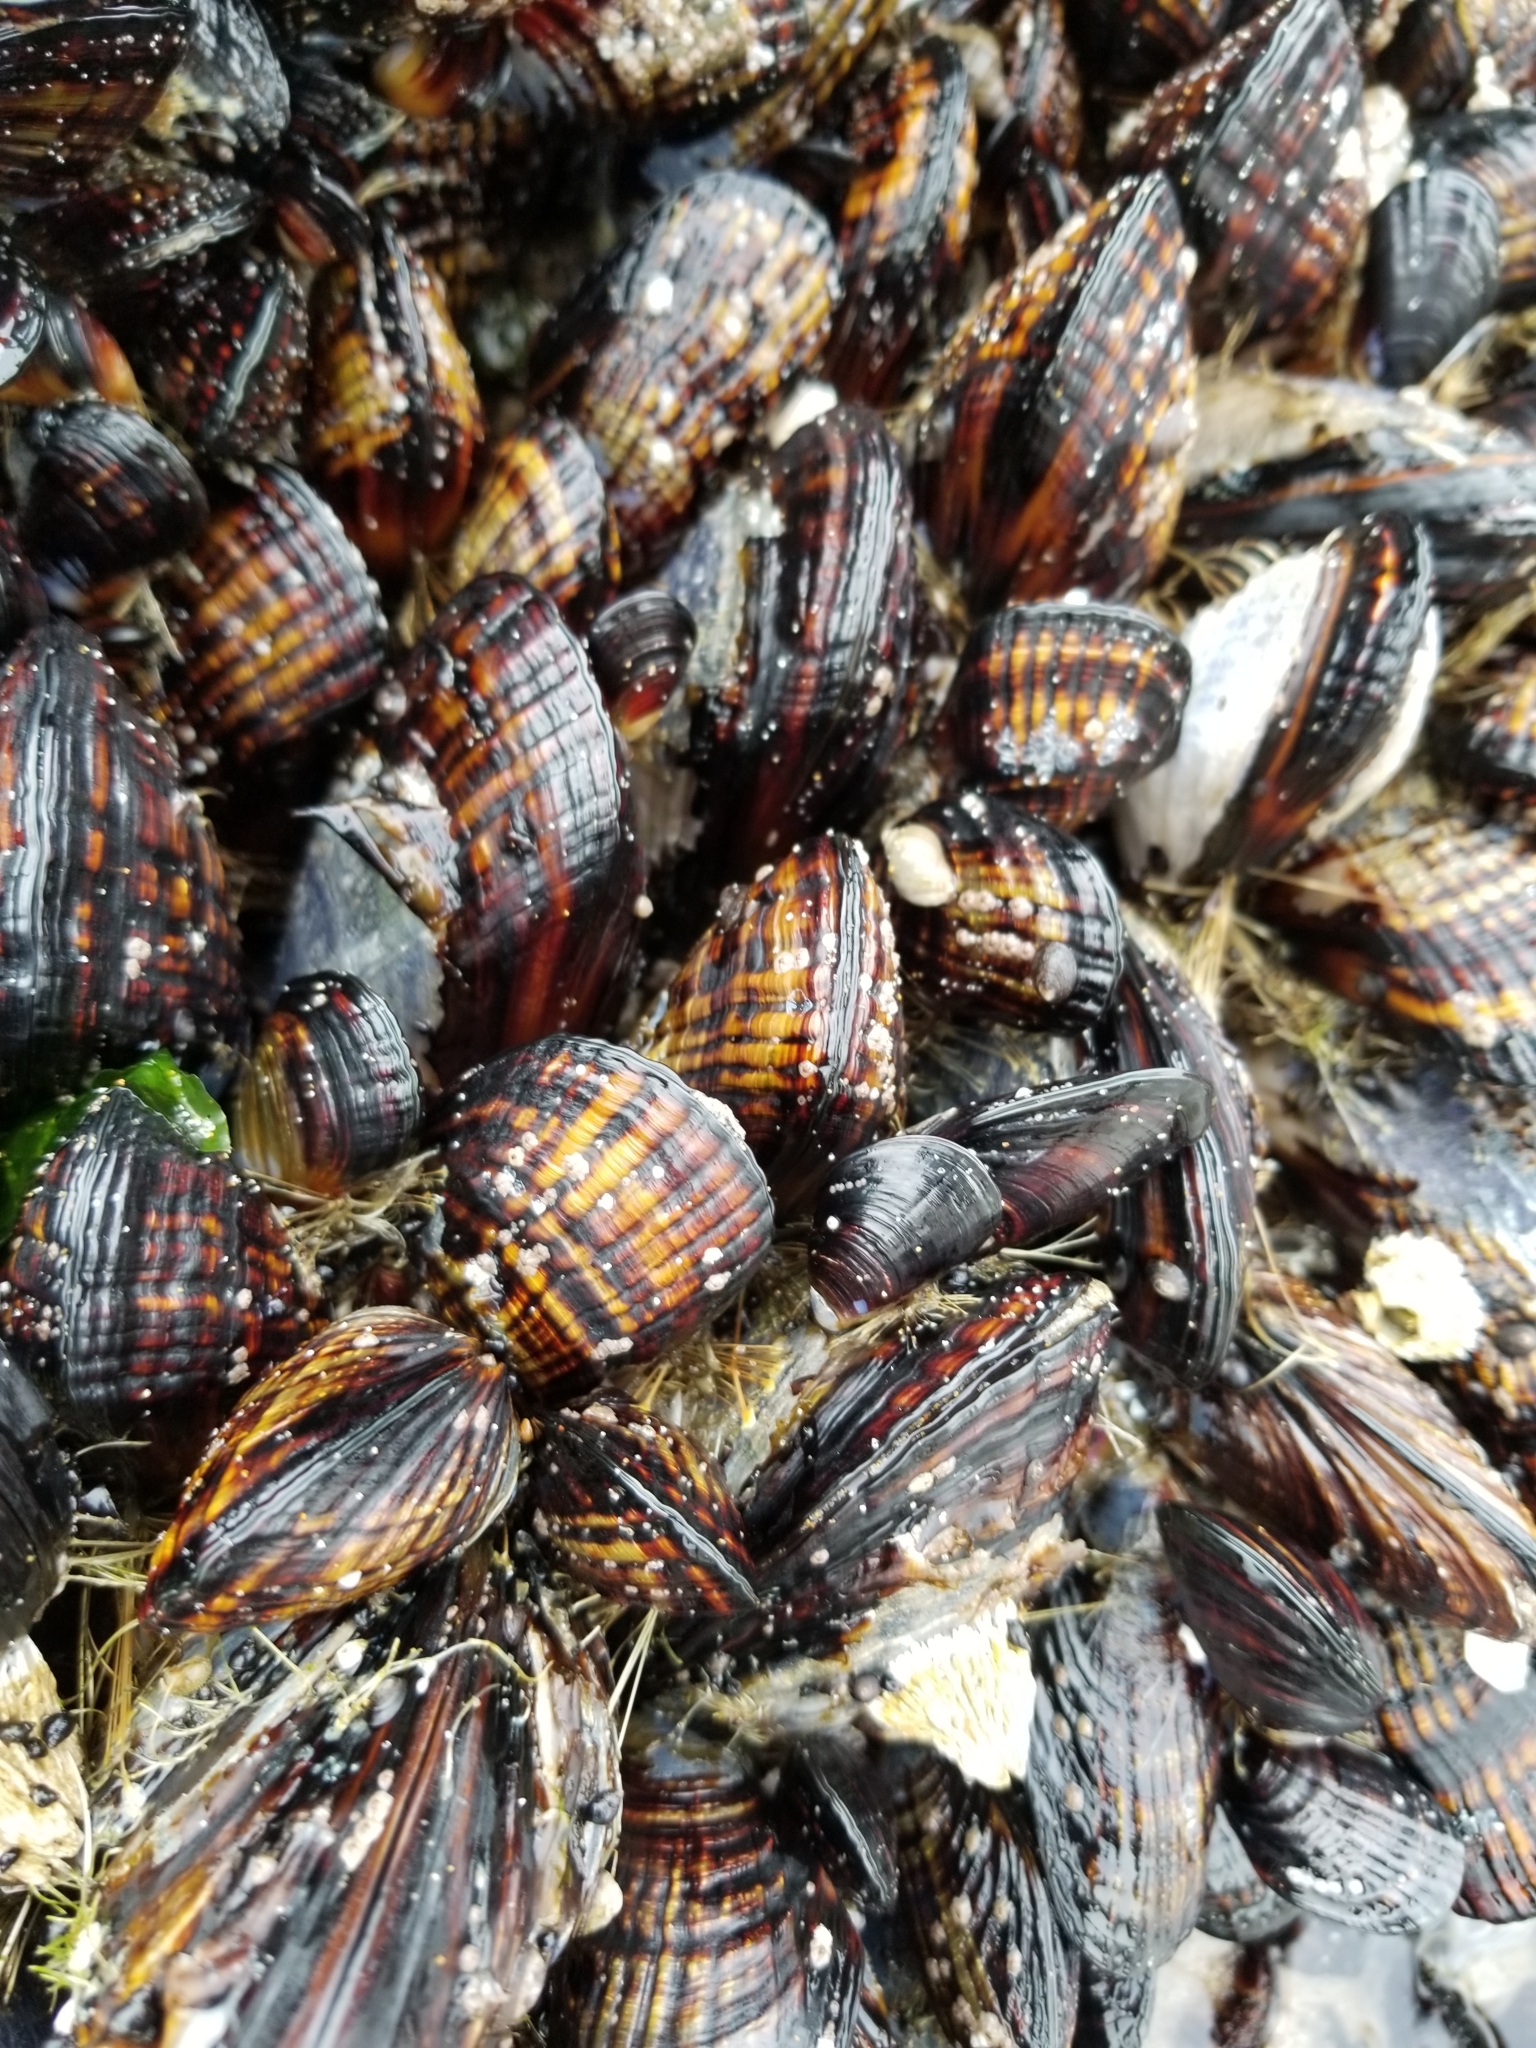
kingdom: Animalia
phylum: Mollusca
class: Bivalvia
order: Mytilida
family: Mytilidae
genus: Mytilus
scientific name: Mytilus californianus
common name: California mussel
